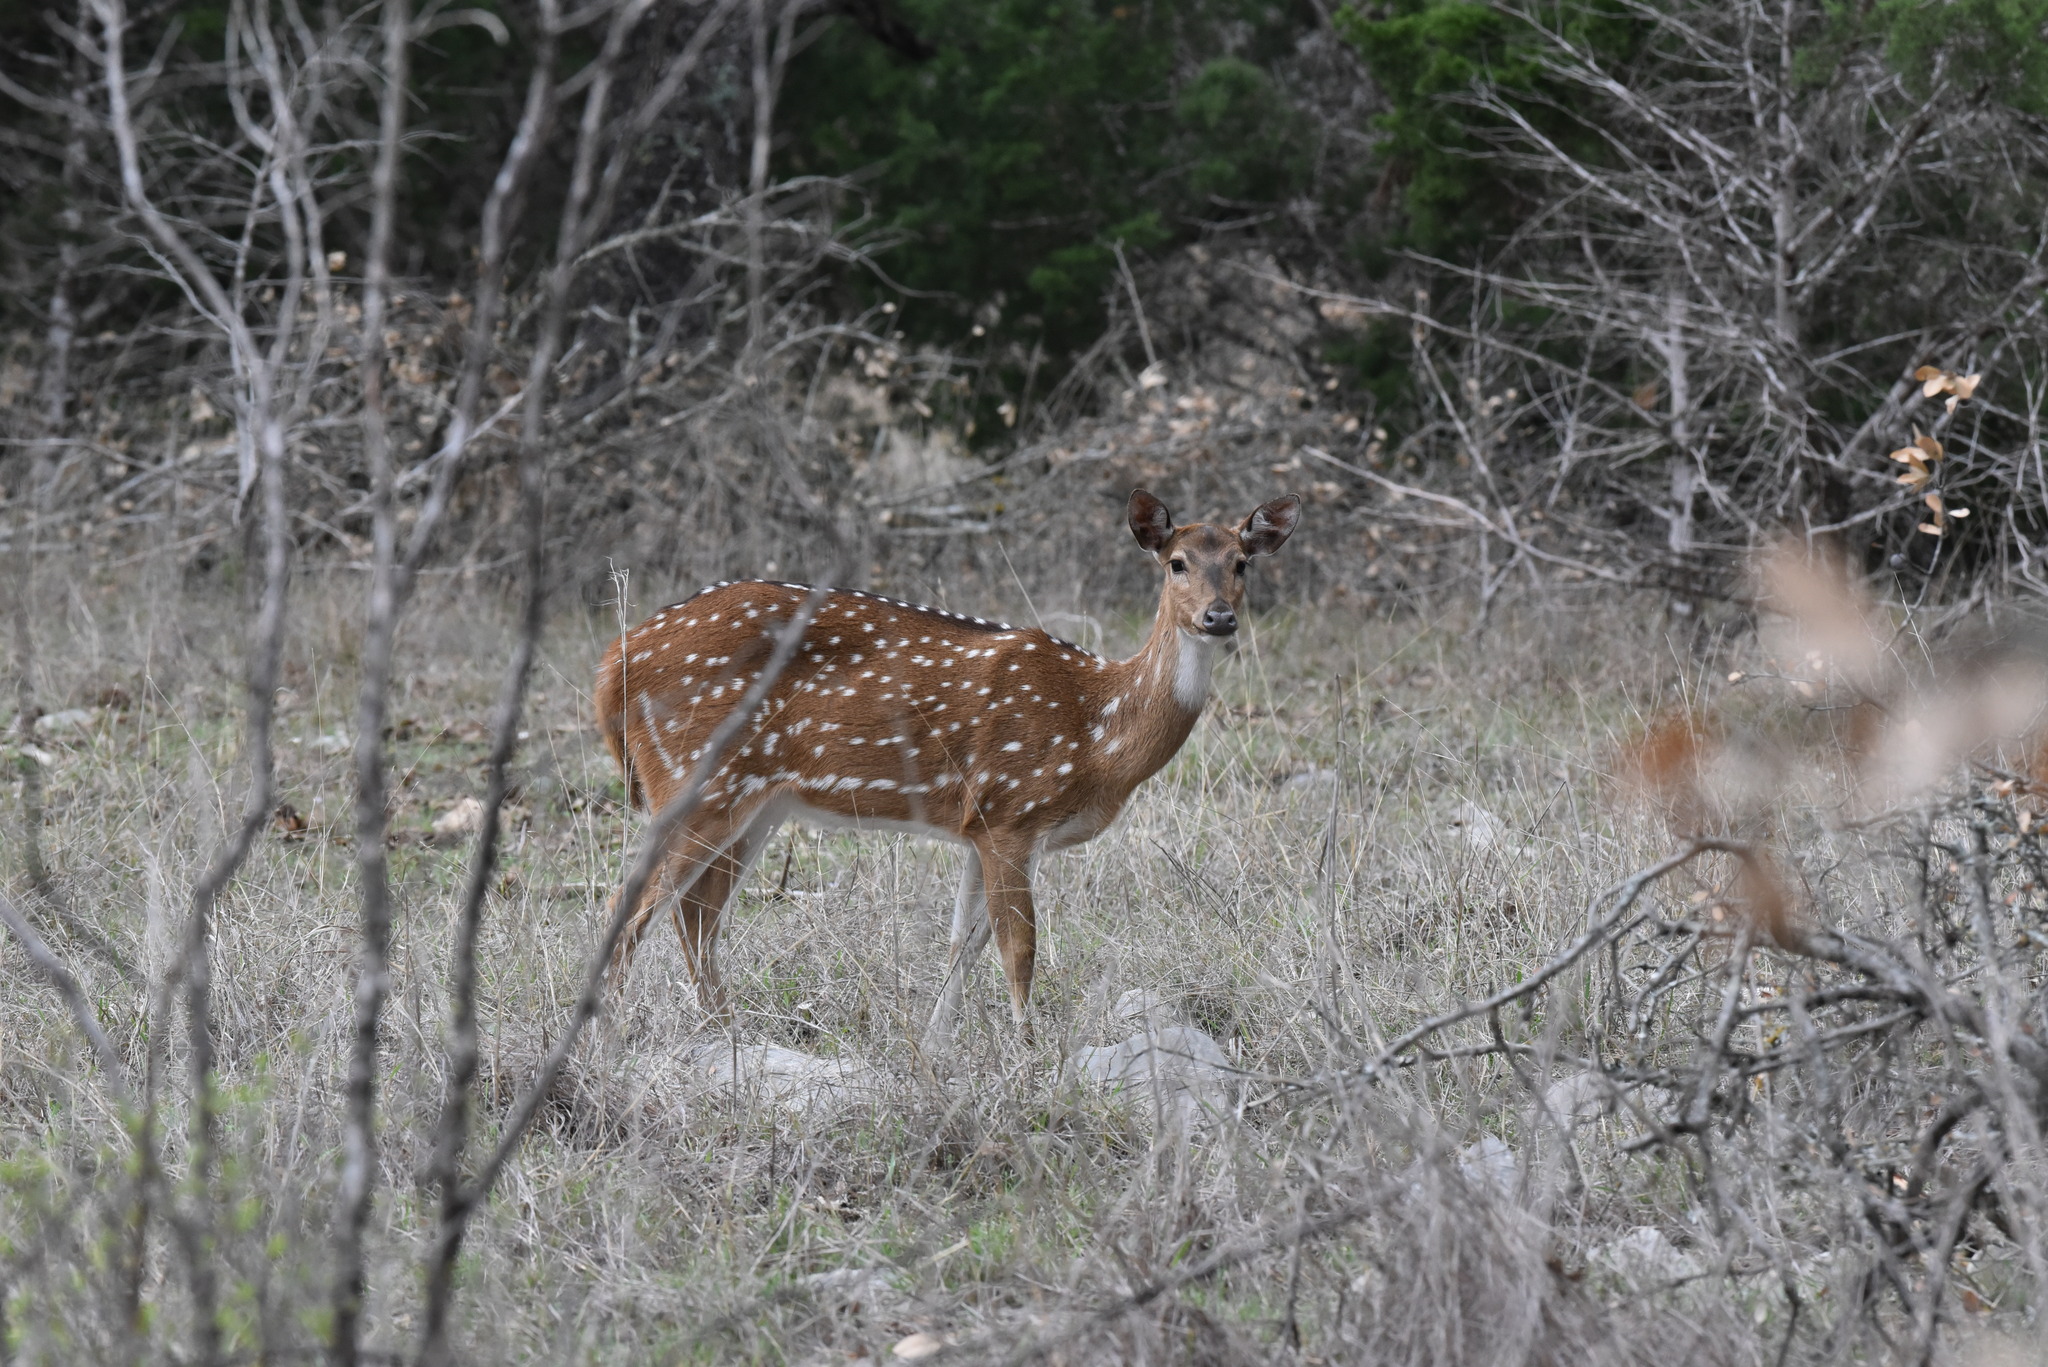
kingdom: Animalia
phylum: Chordata
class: Mammalia
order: Artiodactyla
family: Cervidae
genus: Axis
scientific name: Axis axis
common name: Chital
